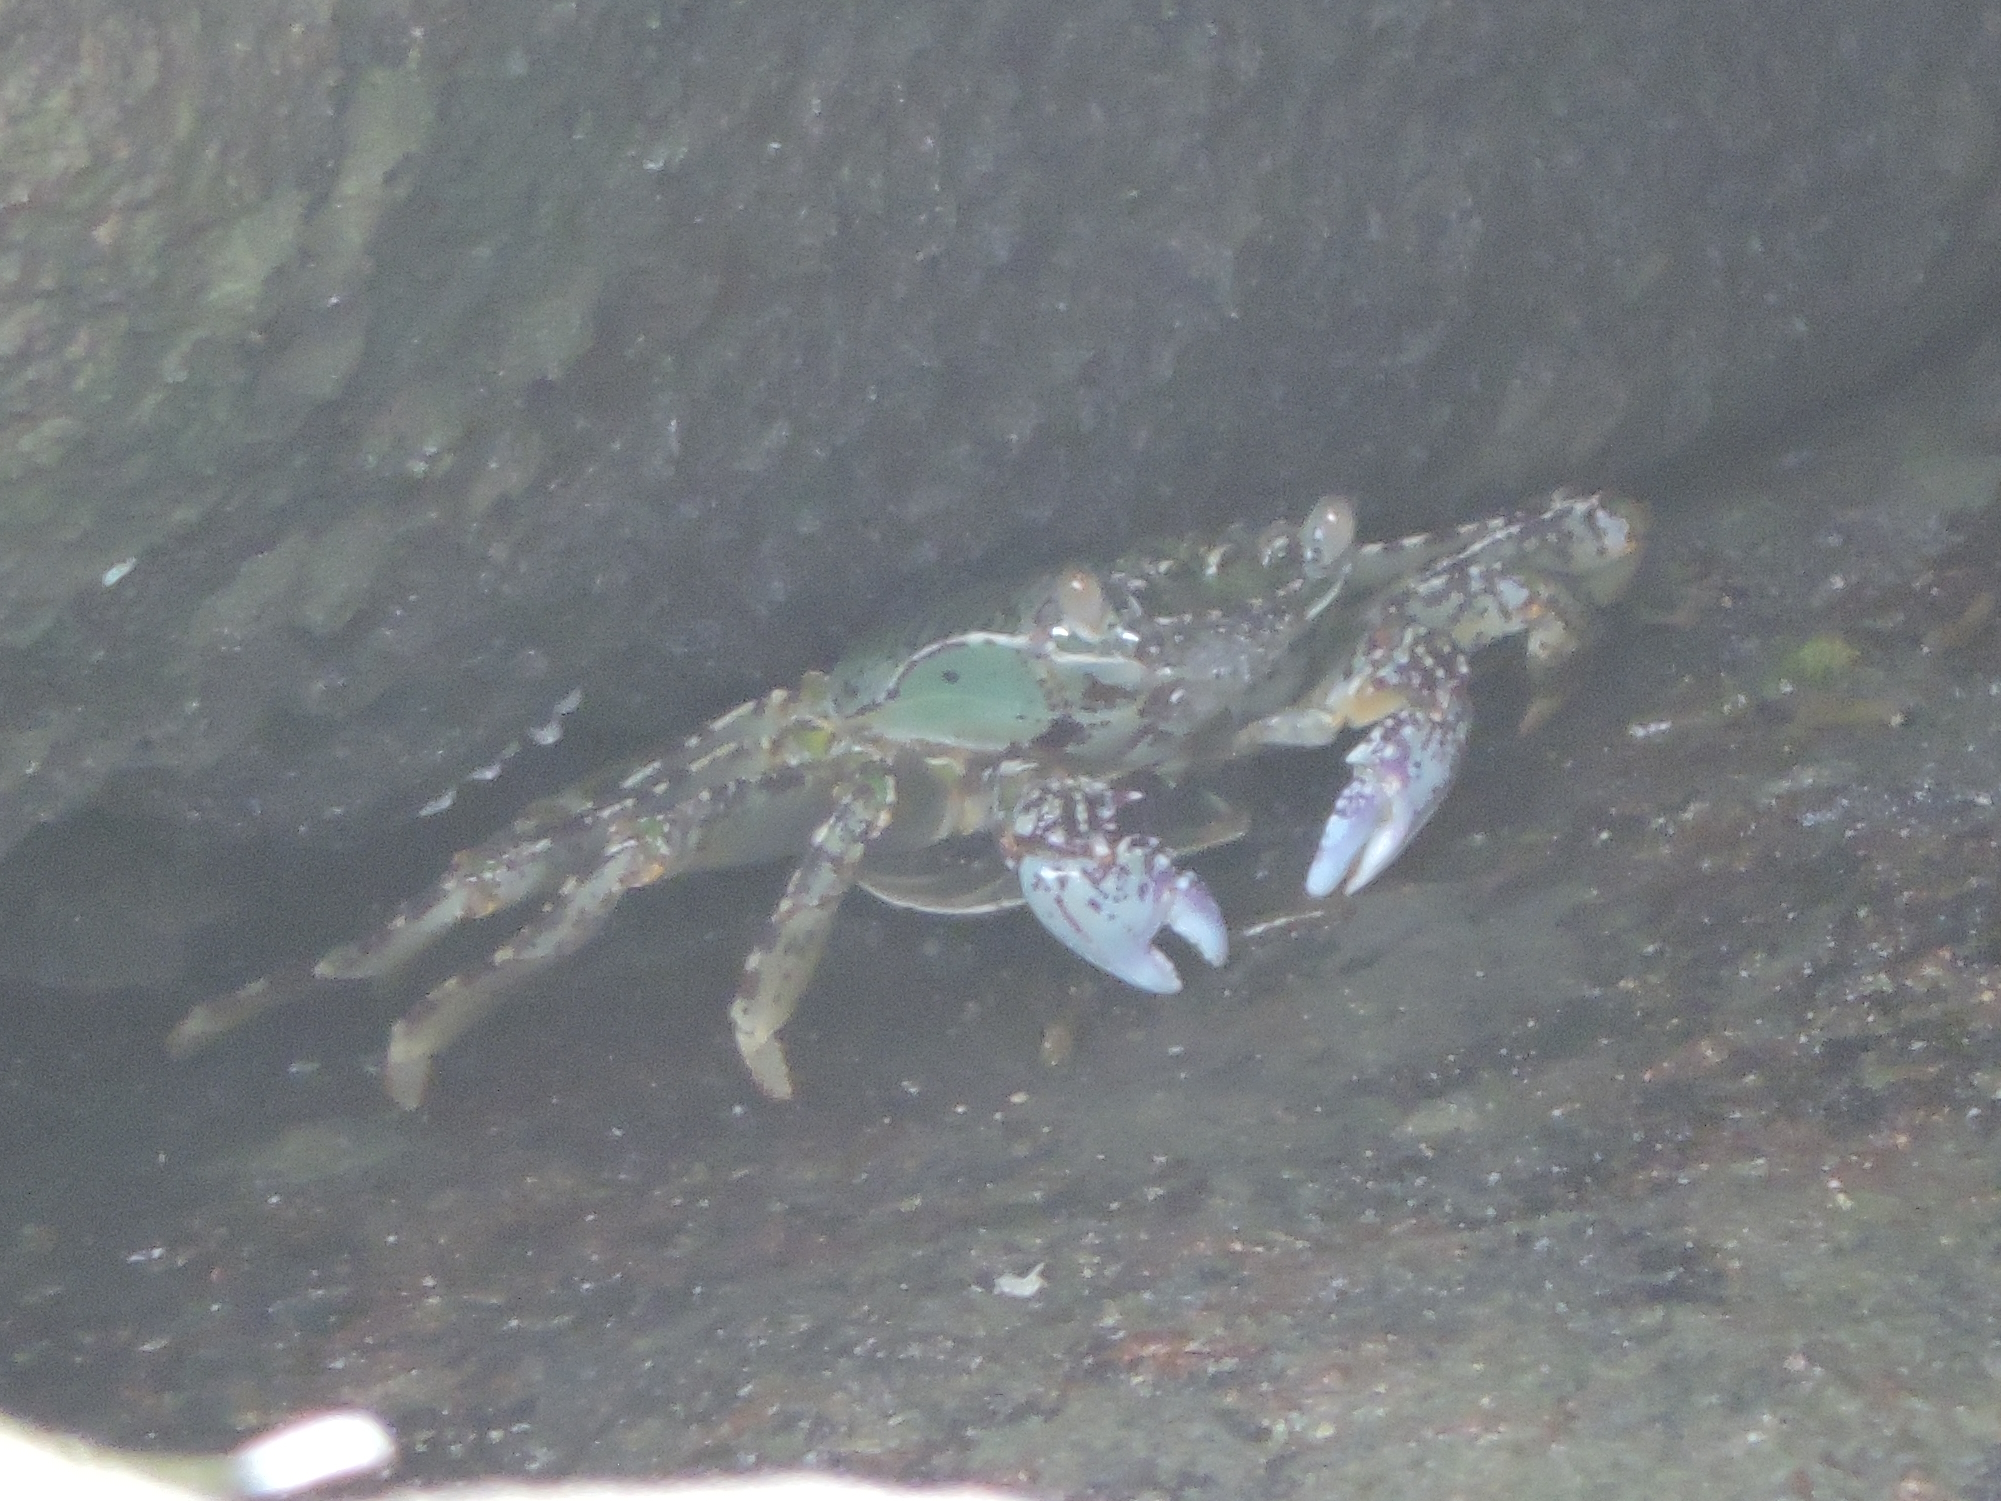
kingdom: Animalia
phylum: Arthropoda
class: Malacostraca
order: Decapoda
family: Grapsidae
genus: Grapsus
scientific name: Grapsus albolineatus
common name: Mottled lightfoot crab
